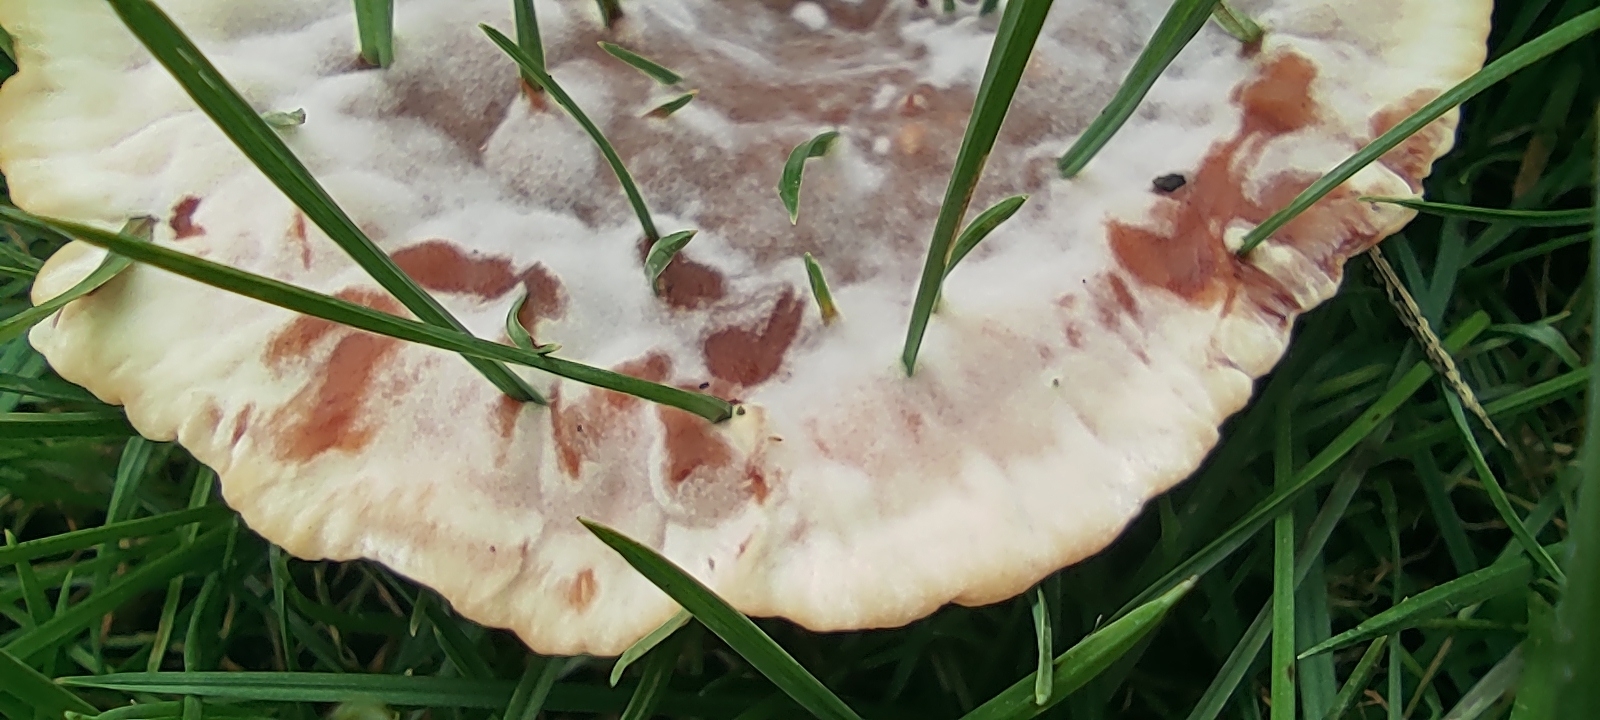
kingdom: Fungi
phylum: Basidiomycota
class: Agaricomycetes
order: Polyporales
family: Podoscyphaceae
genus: Abortiporus
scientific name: Abortiporus biennis
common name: Blushing rosette
